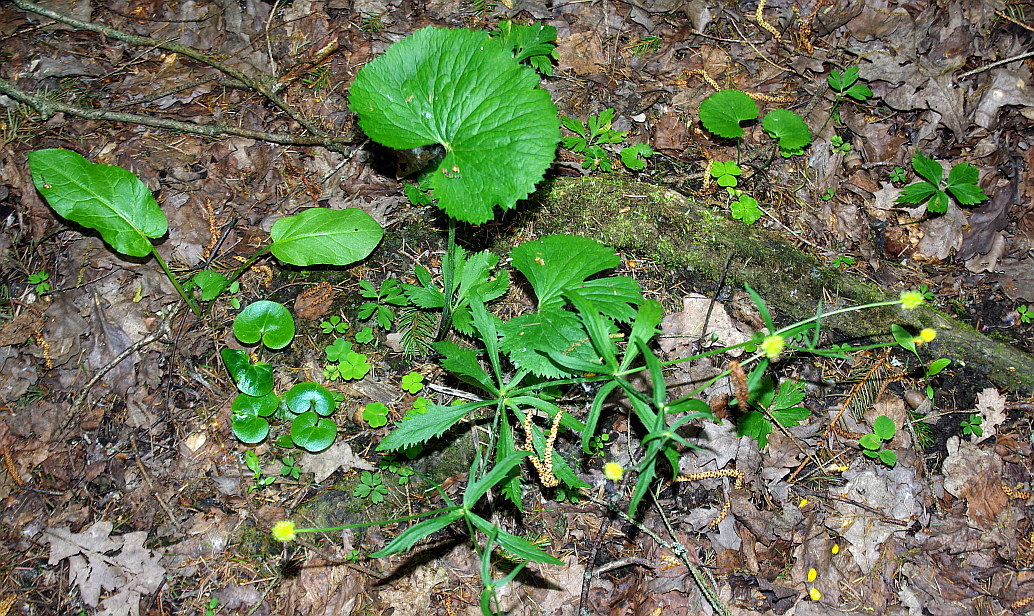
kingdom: Plantae
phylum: Tracheophyta
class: Magnoliopsida
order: Ranunculales
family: Ranunculaceae
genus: Ranunculus
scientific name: Ranunculus cassubicus
